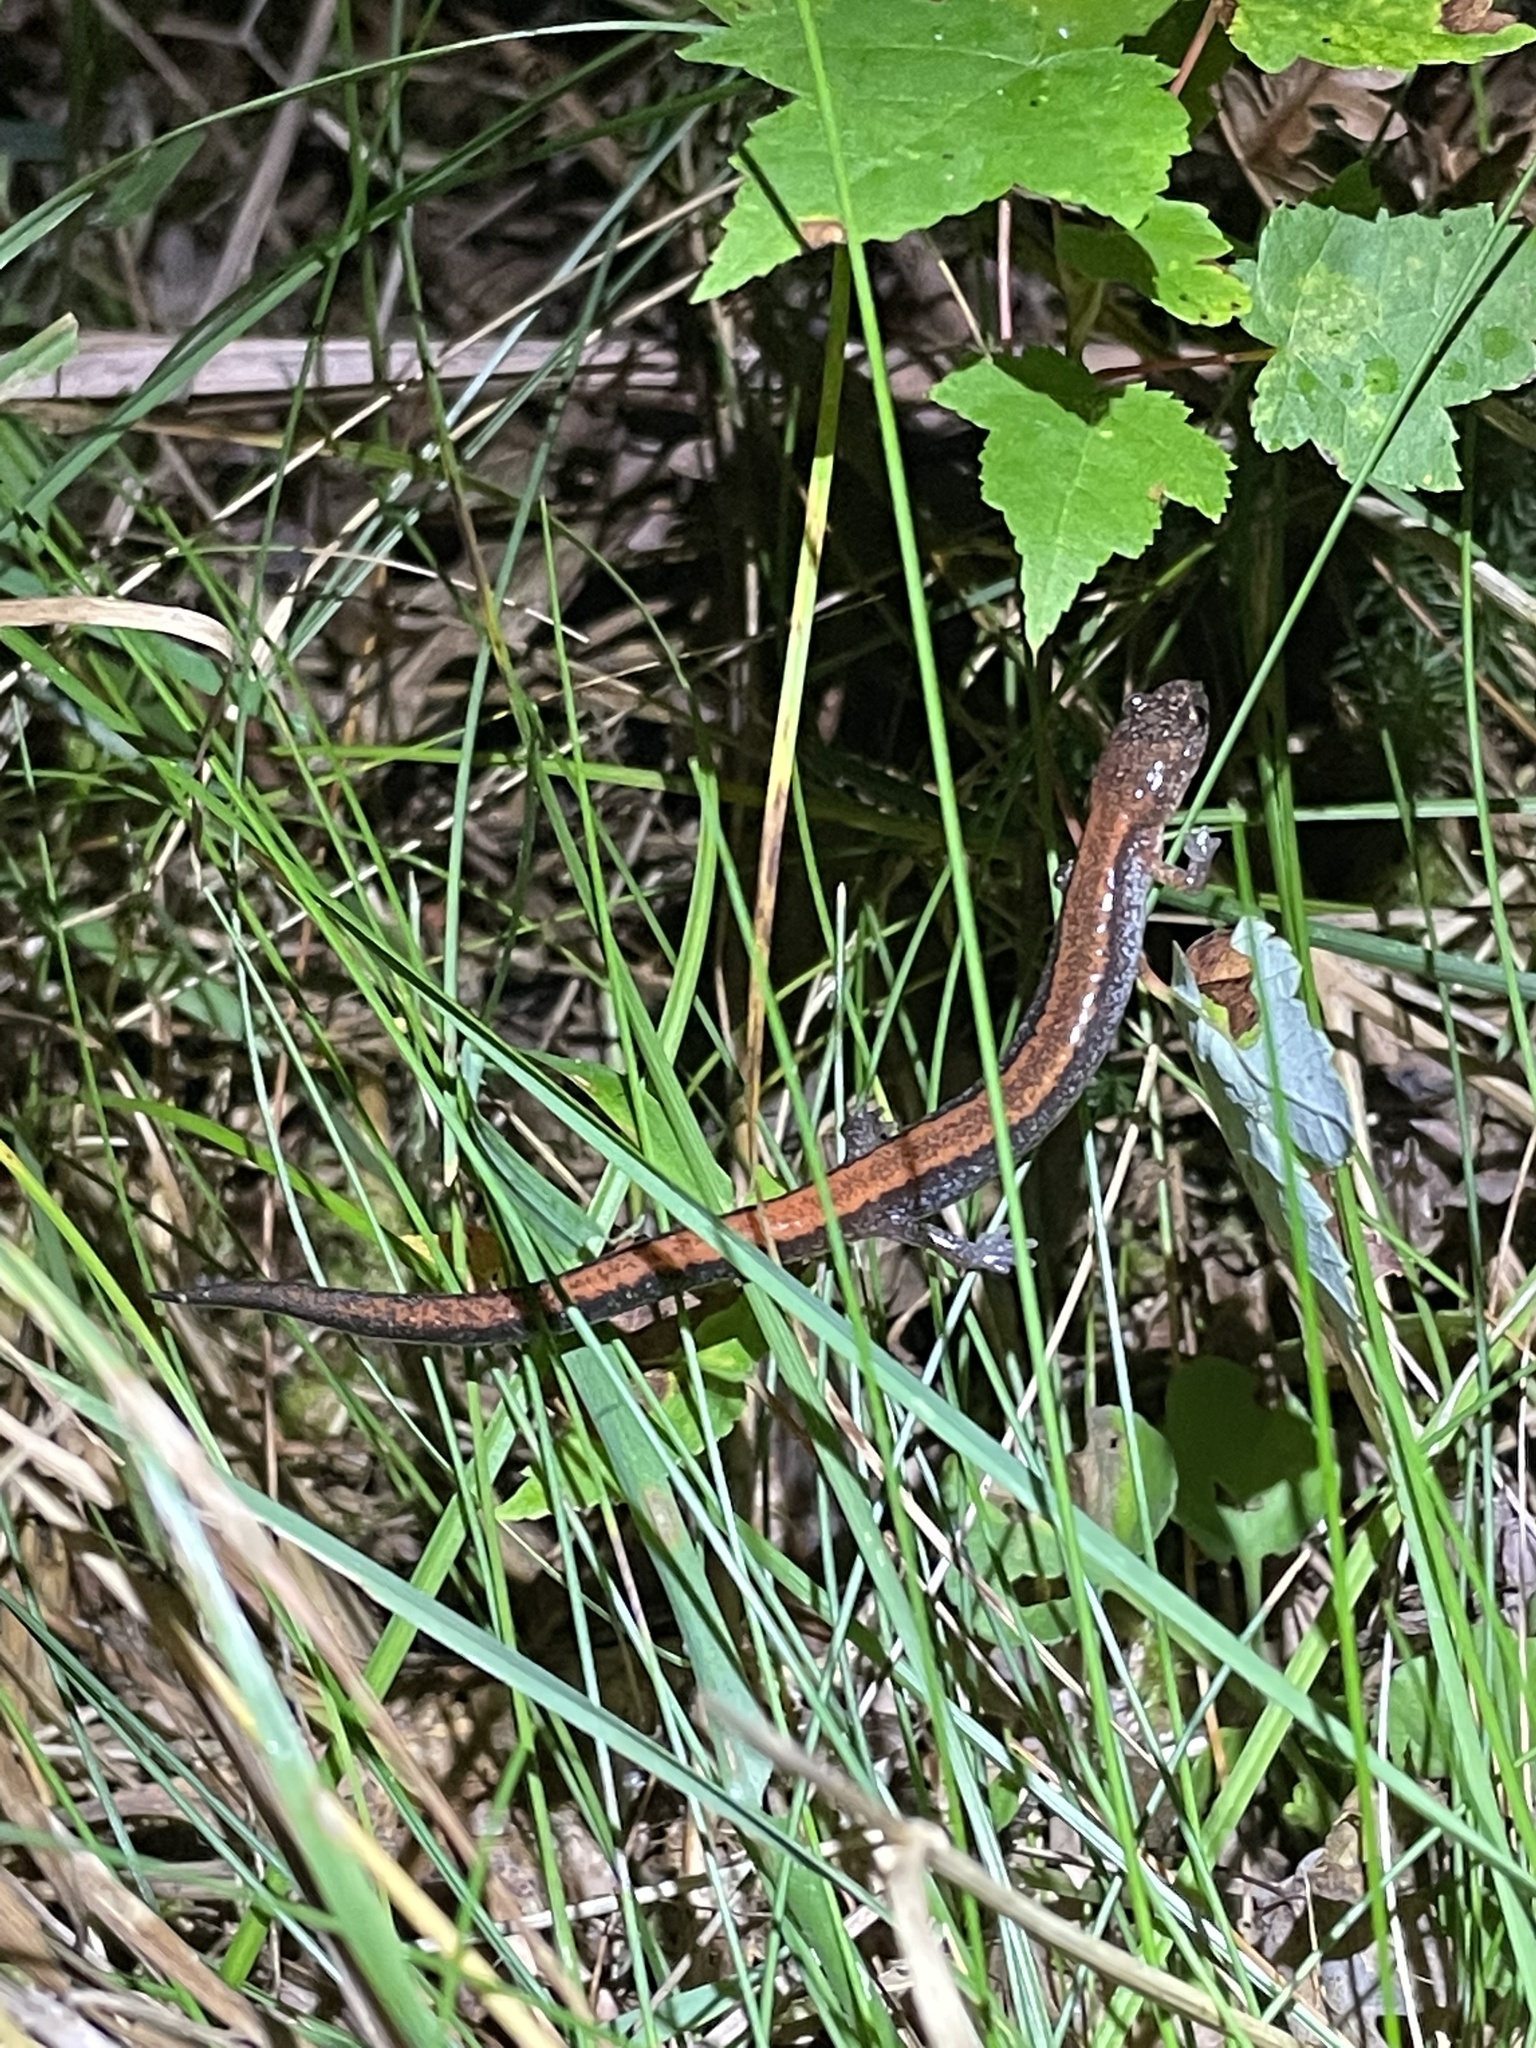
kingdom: Animalia
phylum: Chordata
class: Amphibia
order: Caudata
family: Plethodontidae
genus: Plethodon
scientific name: Plethodon cinereus
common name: Redback salamander
